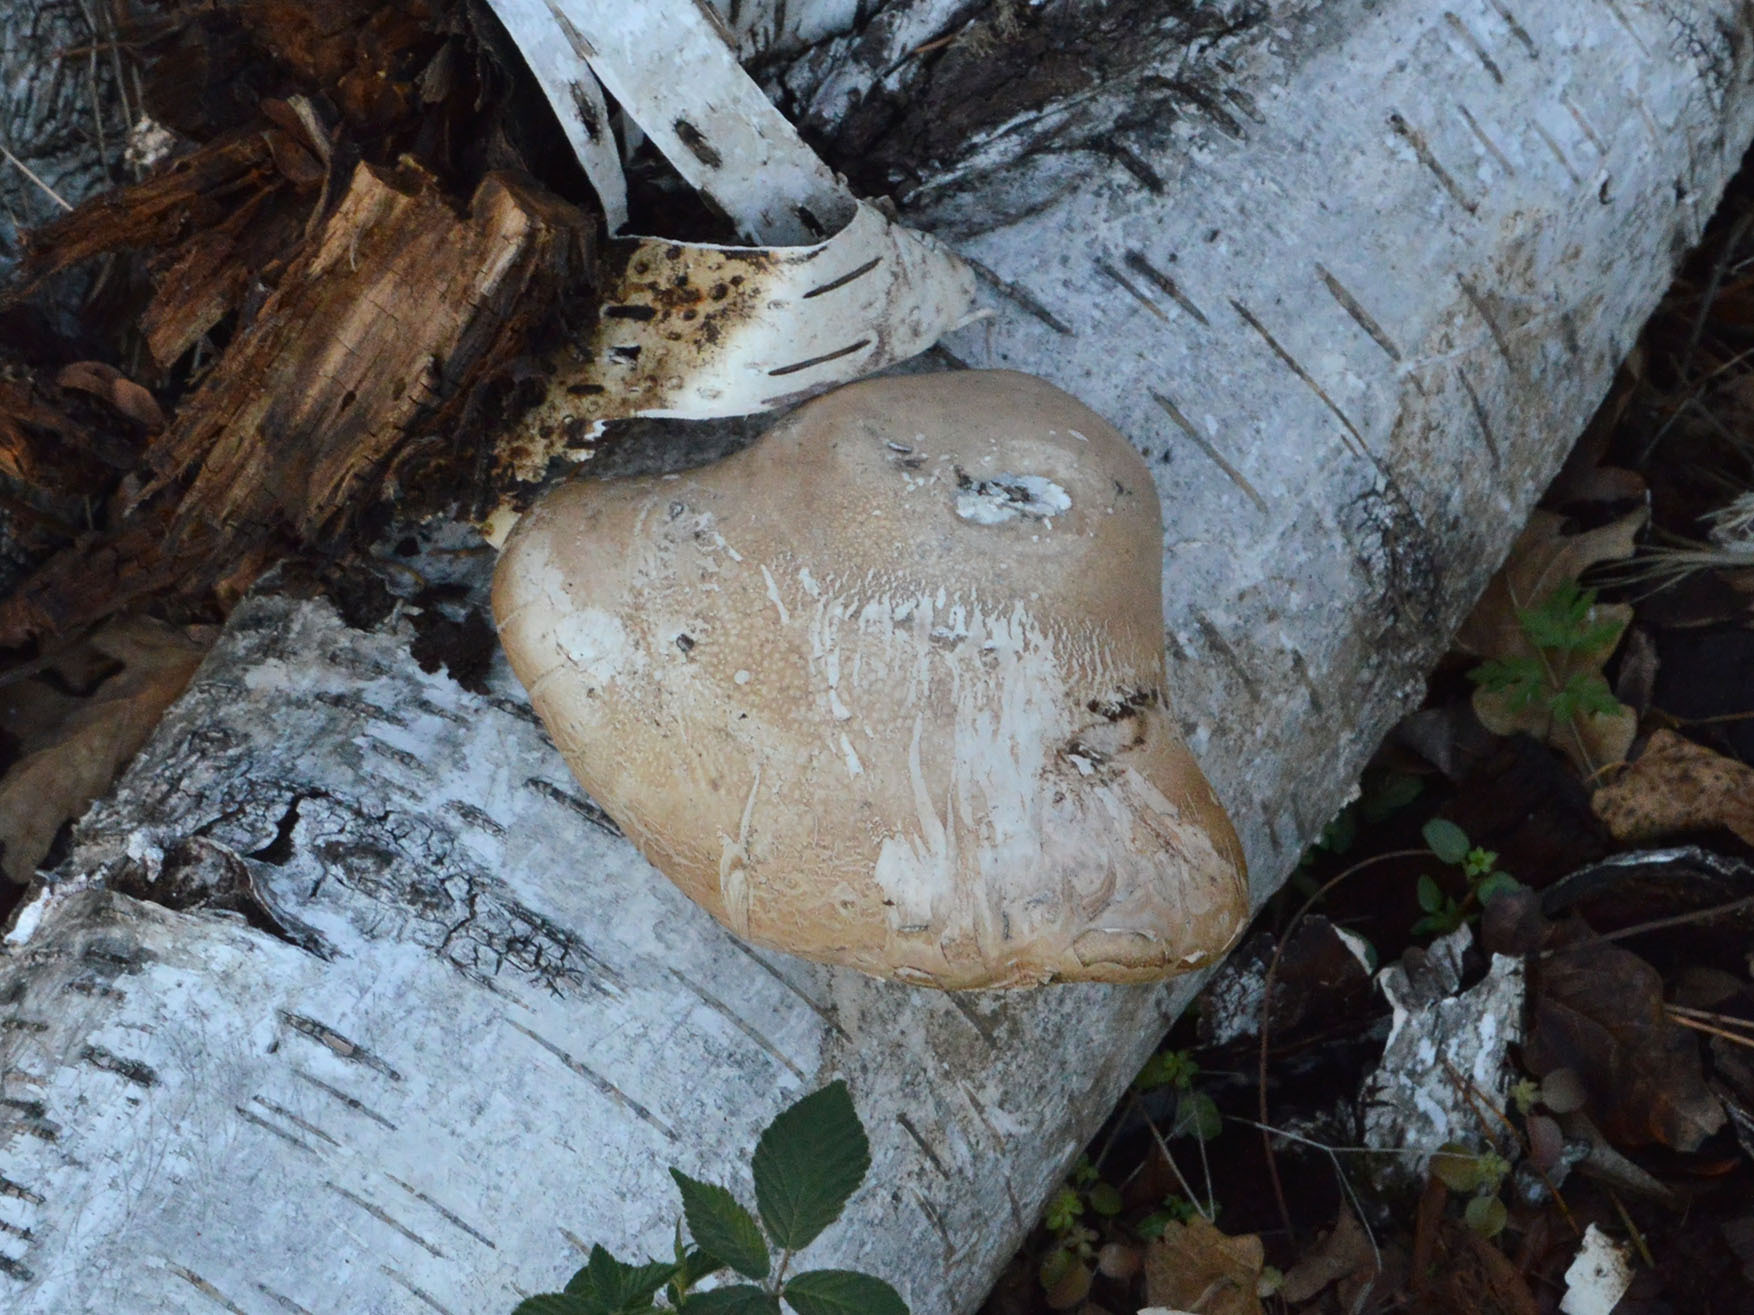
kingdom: Fungi
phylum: Basidiomycota
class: Agaricomycetes
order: Polyporales
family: Fomitopsidaceae
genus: Fomitopsis
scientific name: Fomitopsis betulina
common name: Birch polypore
